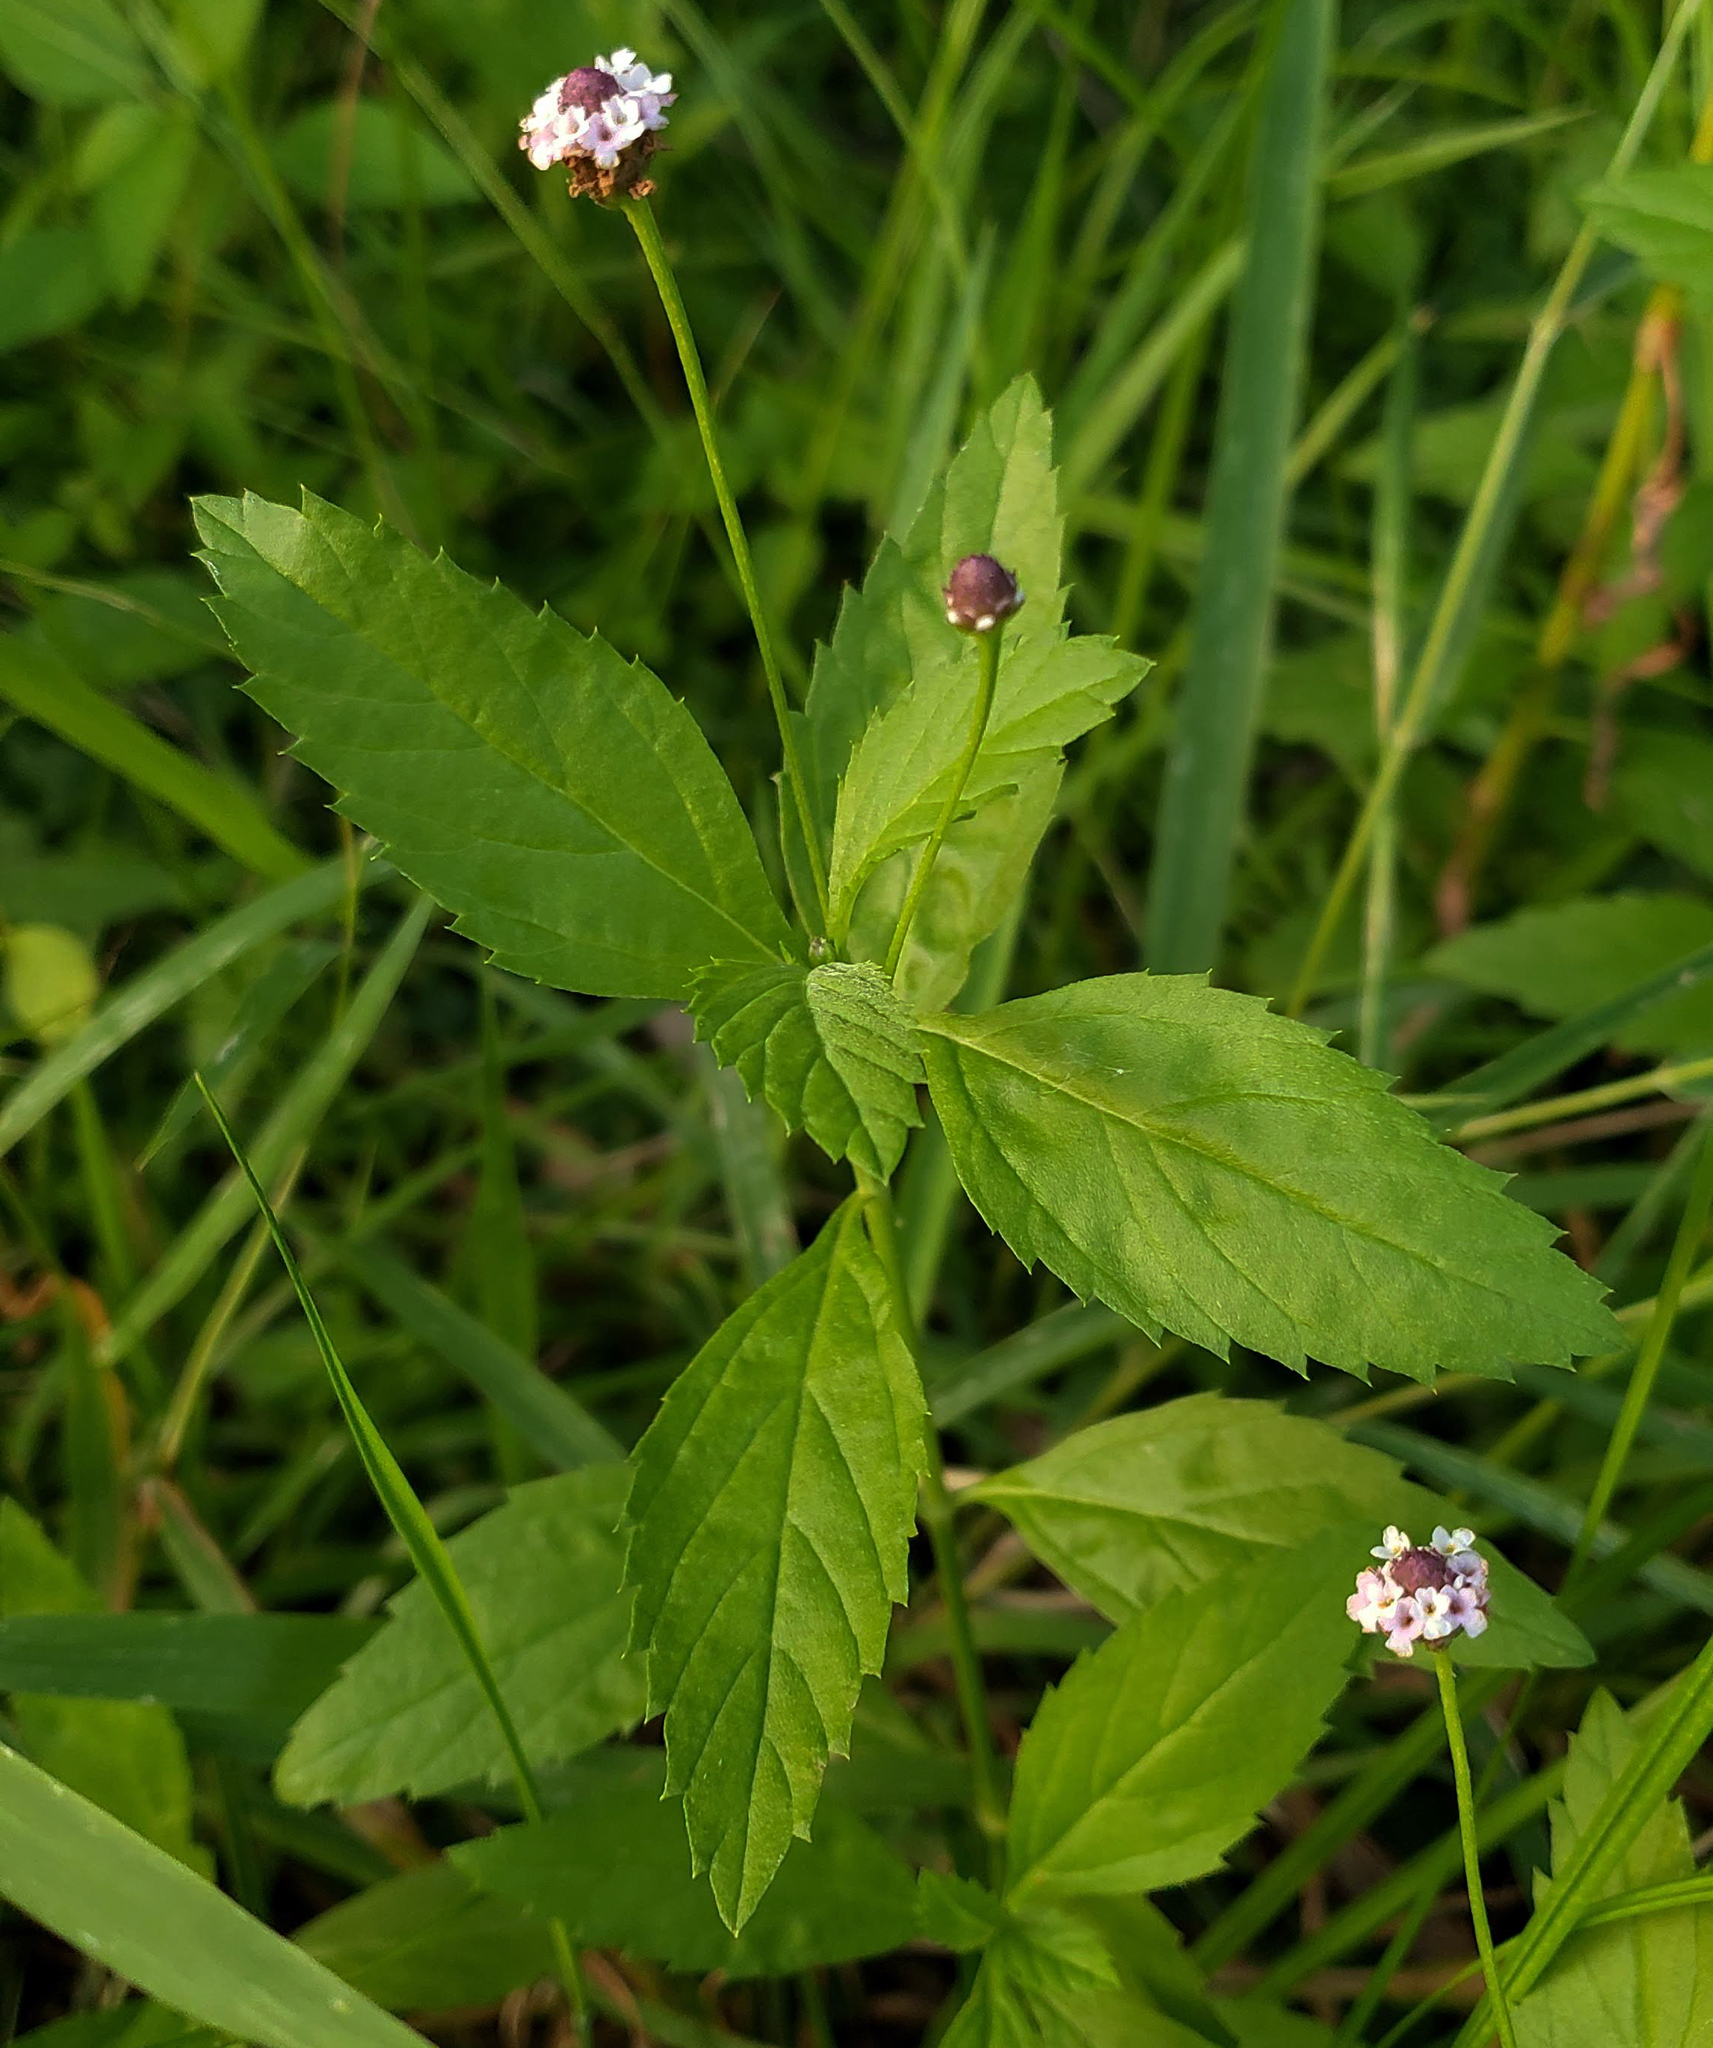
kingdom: Plantae
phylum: Tracheophyta
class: Magnoliopsida
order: Lamiales
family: Verbenaceae
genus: Phyla
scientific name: Phyla lanceolata
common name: Northern fogfruit
